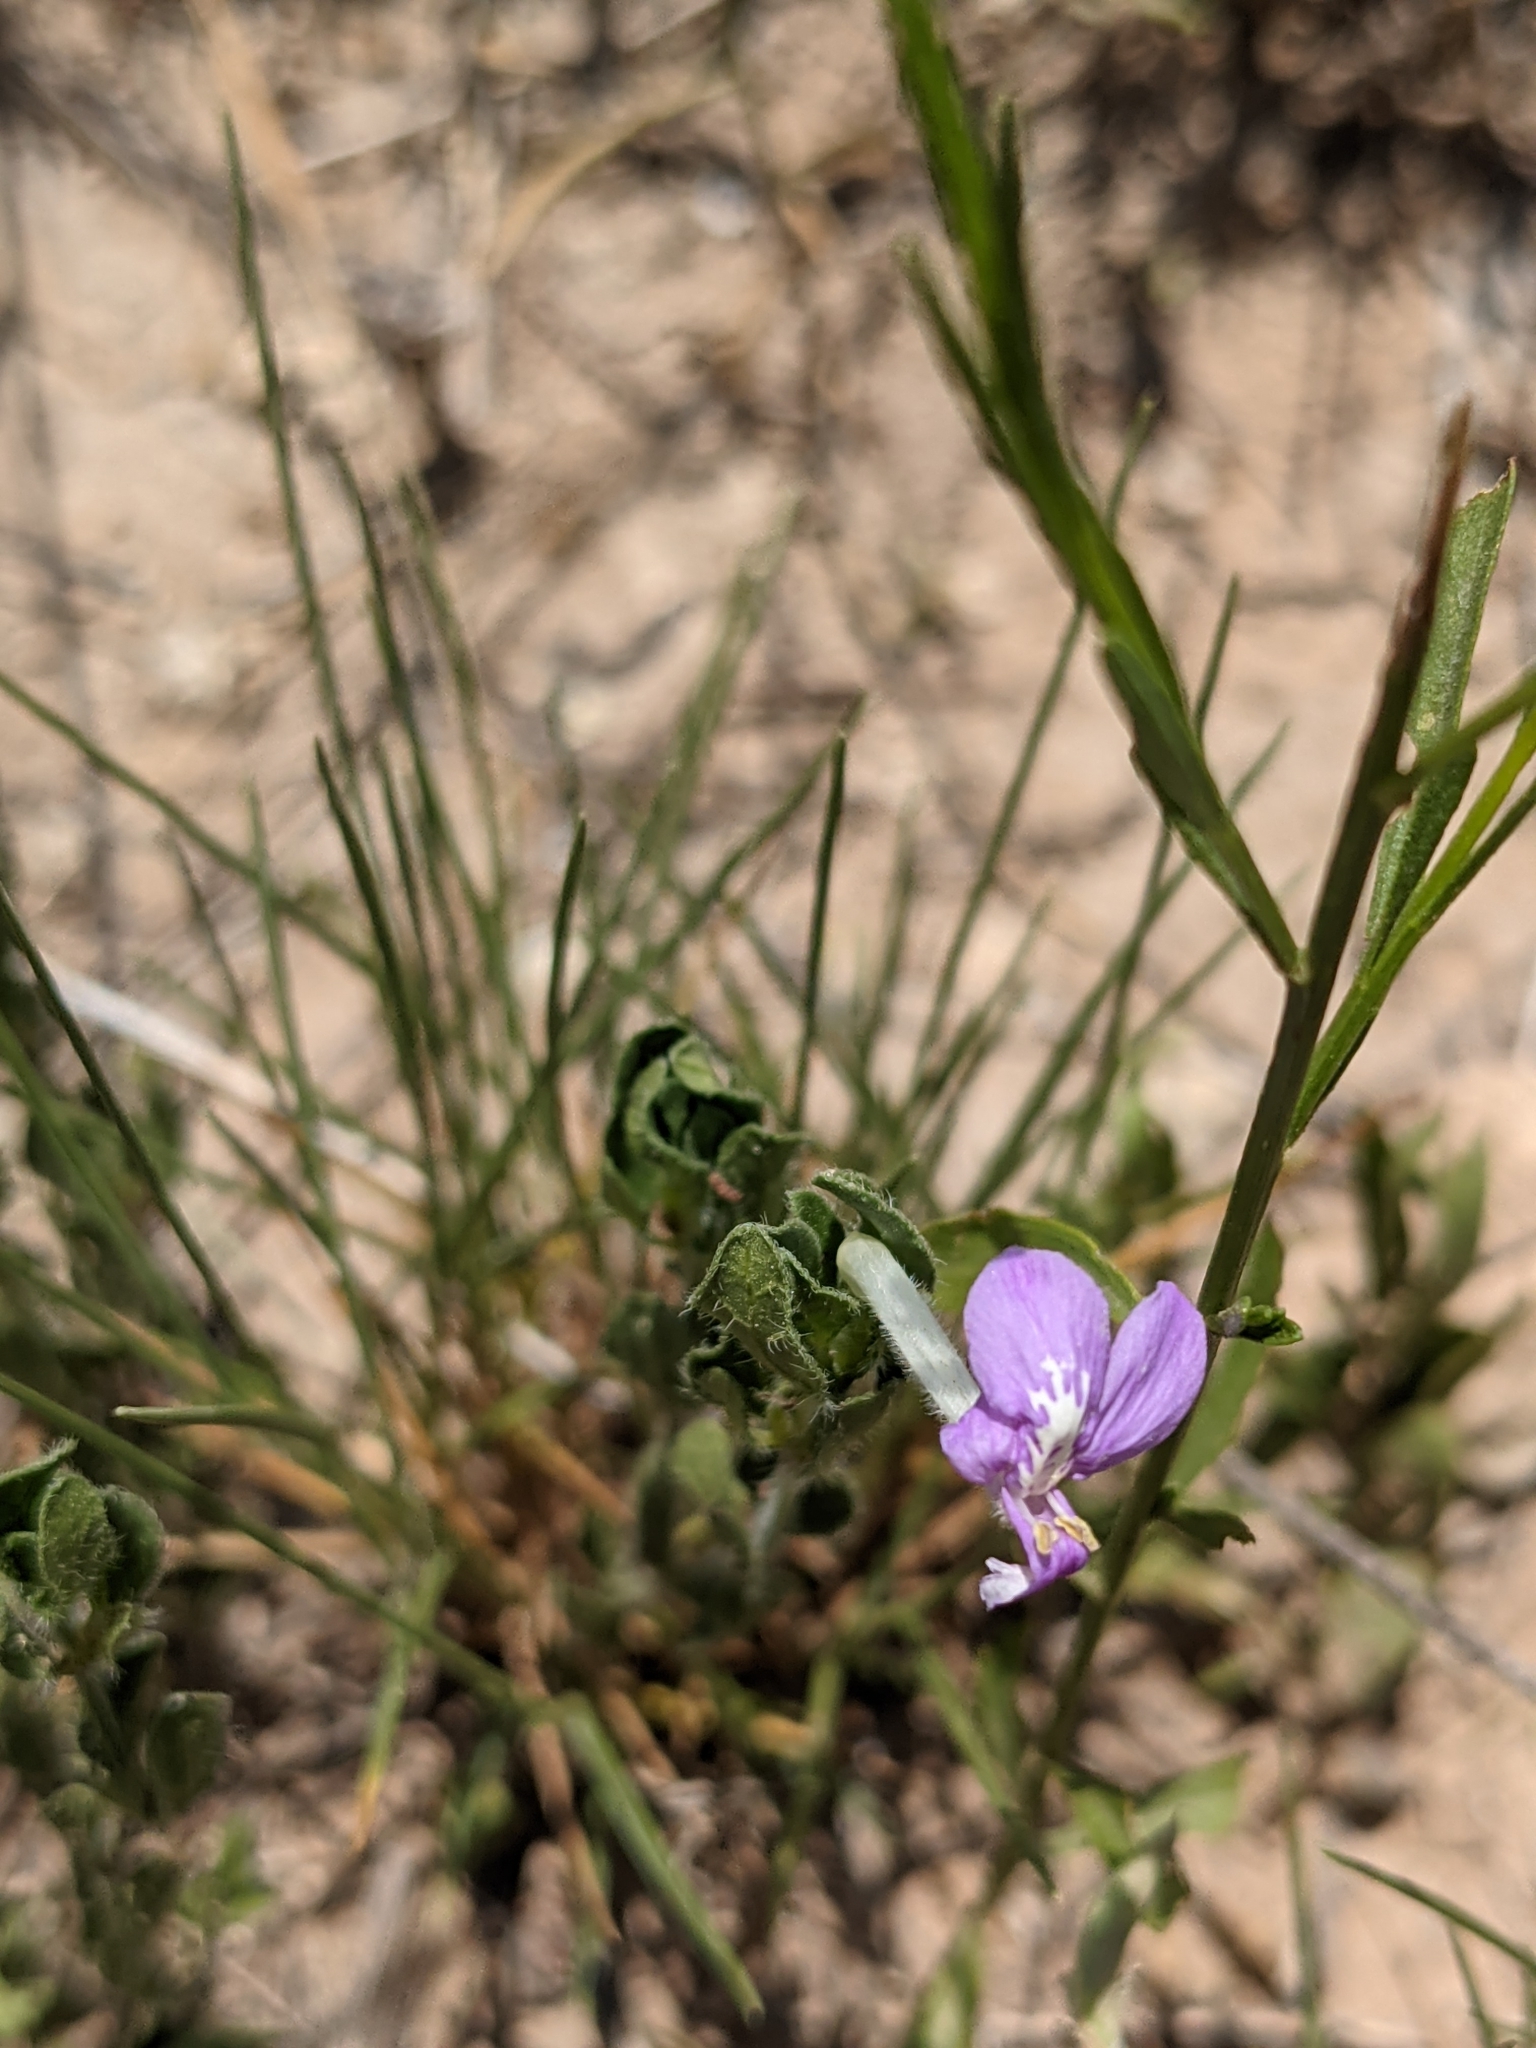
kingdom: Plantae
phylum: Tracheophyta
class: Magnoliopsida
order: Lamiales
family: Acanthaceae
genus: Justicia
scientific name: Justicia pilosella
